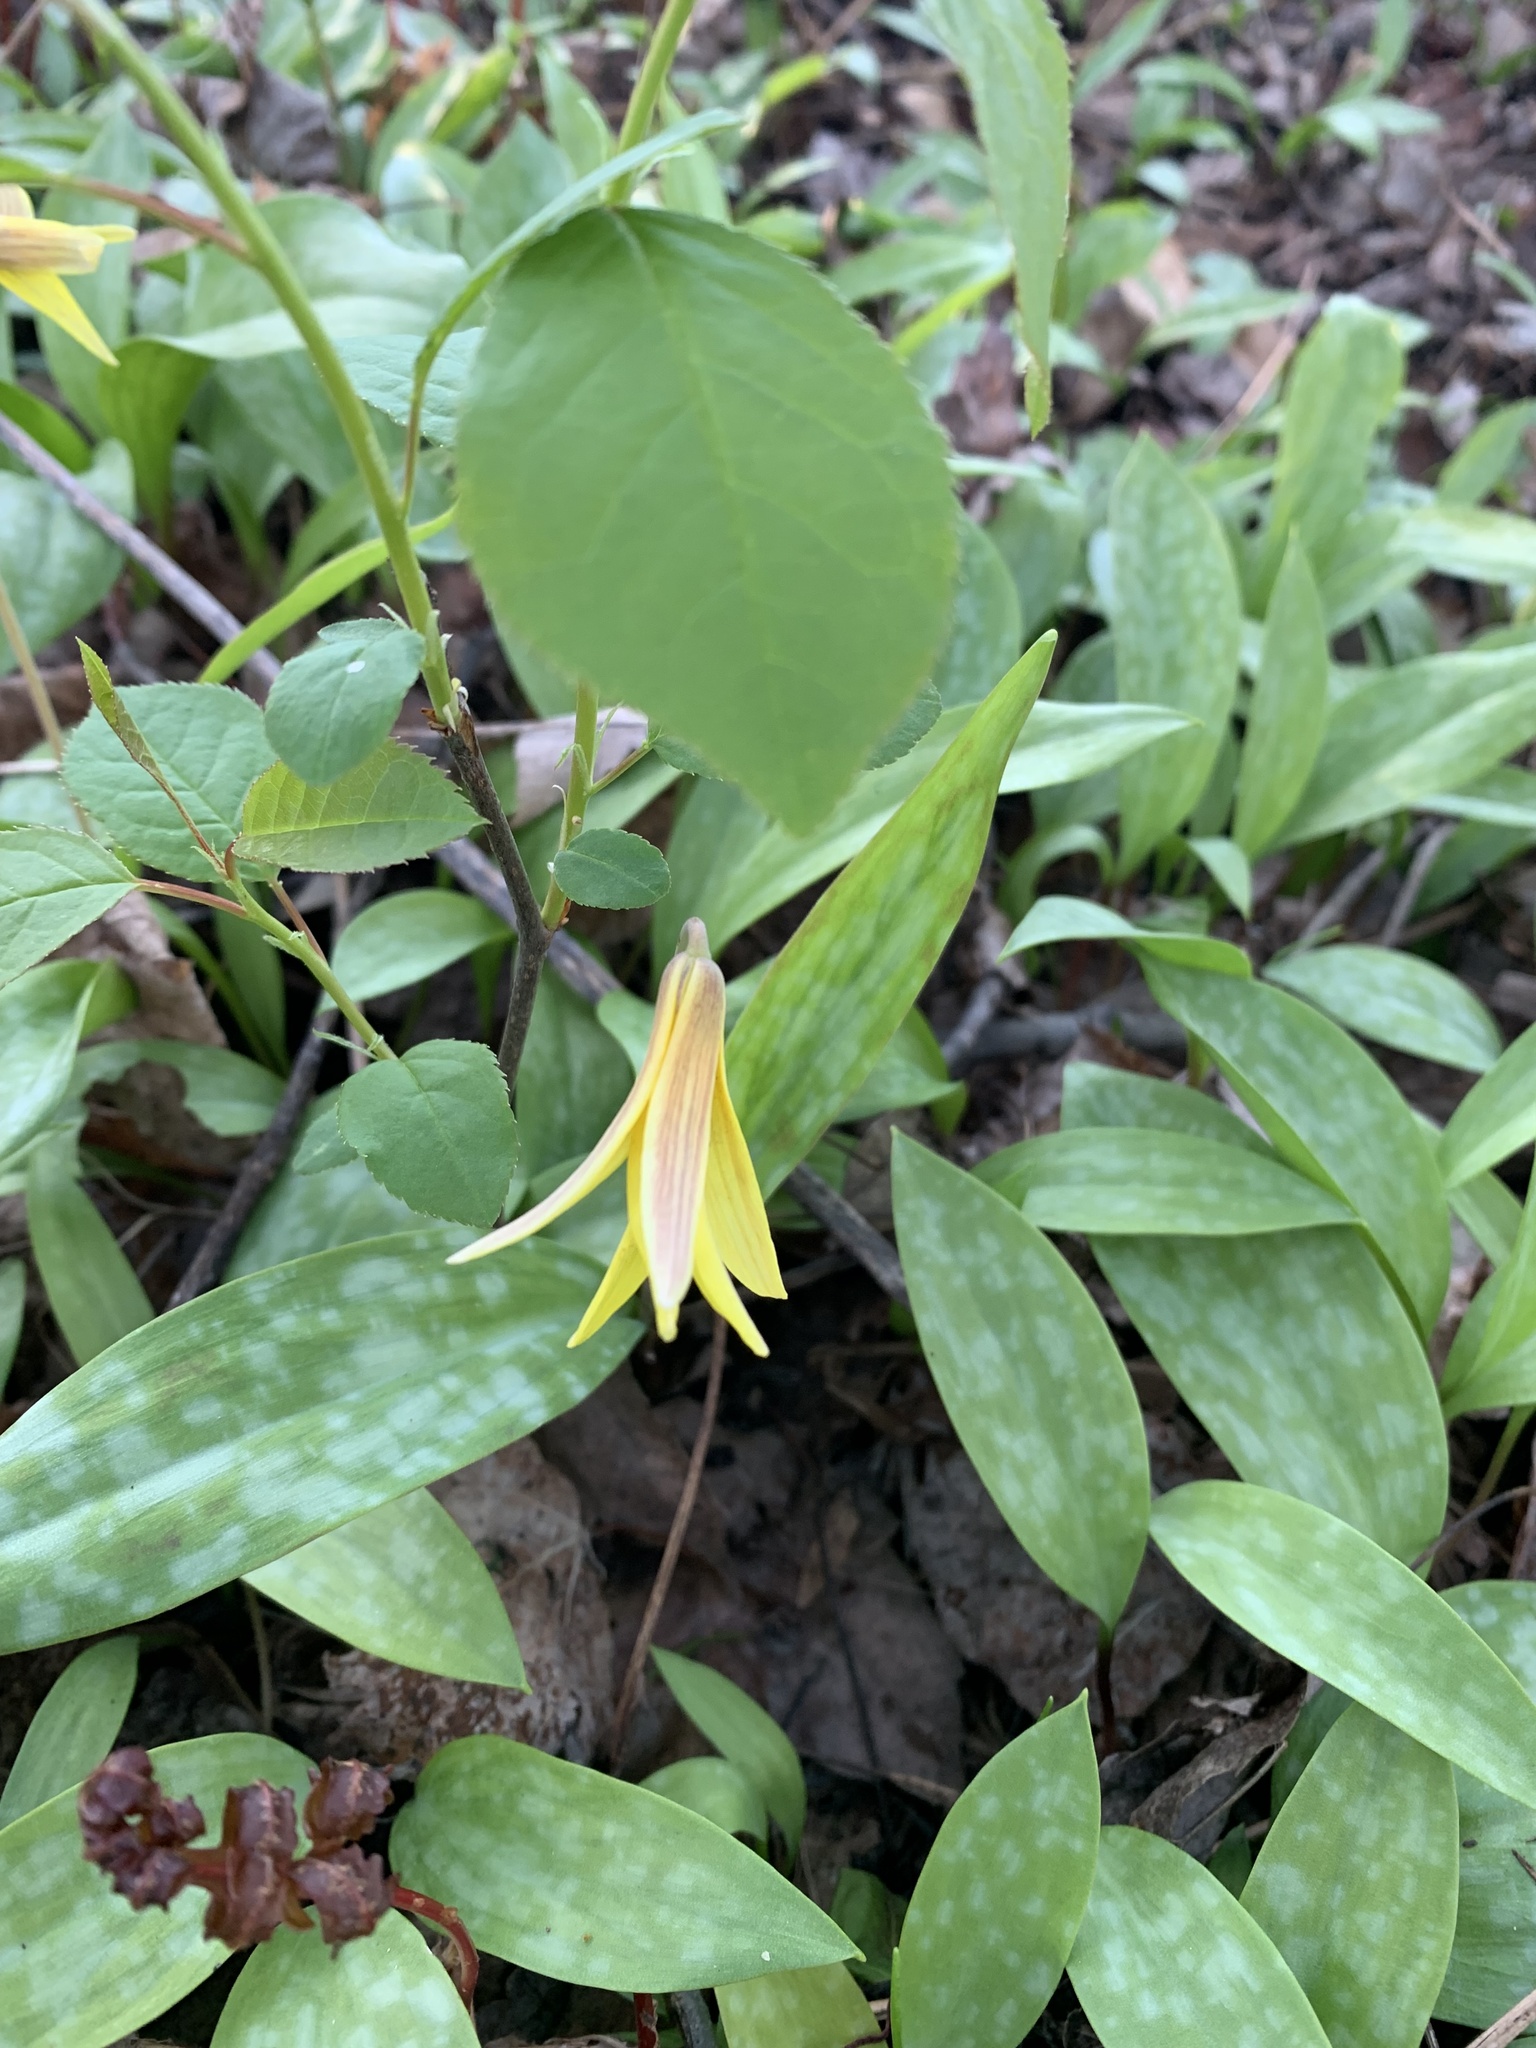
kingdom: Plantae
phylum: Tracheophyta
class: Liliopsida
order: Liliales
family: Liliaceae
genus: Erythronium
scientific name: Erythronium americanum
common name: Yellow adder's-tongue
